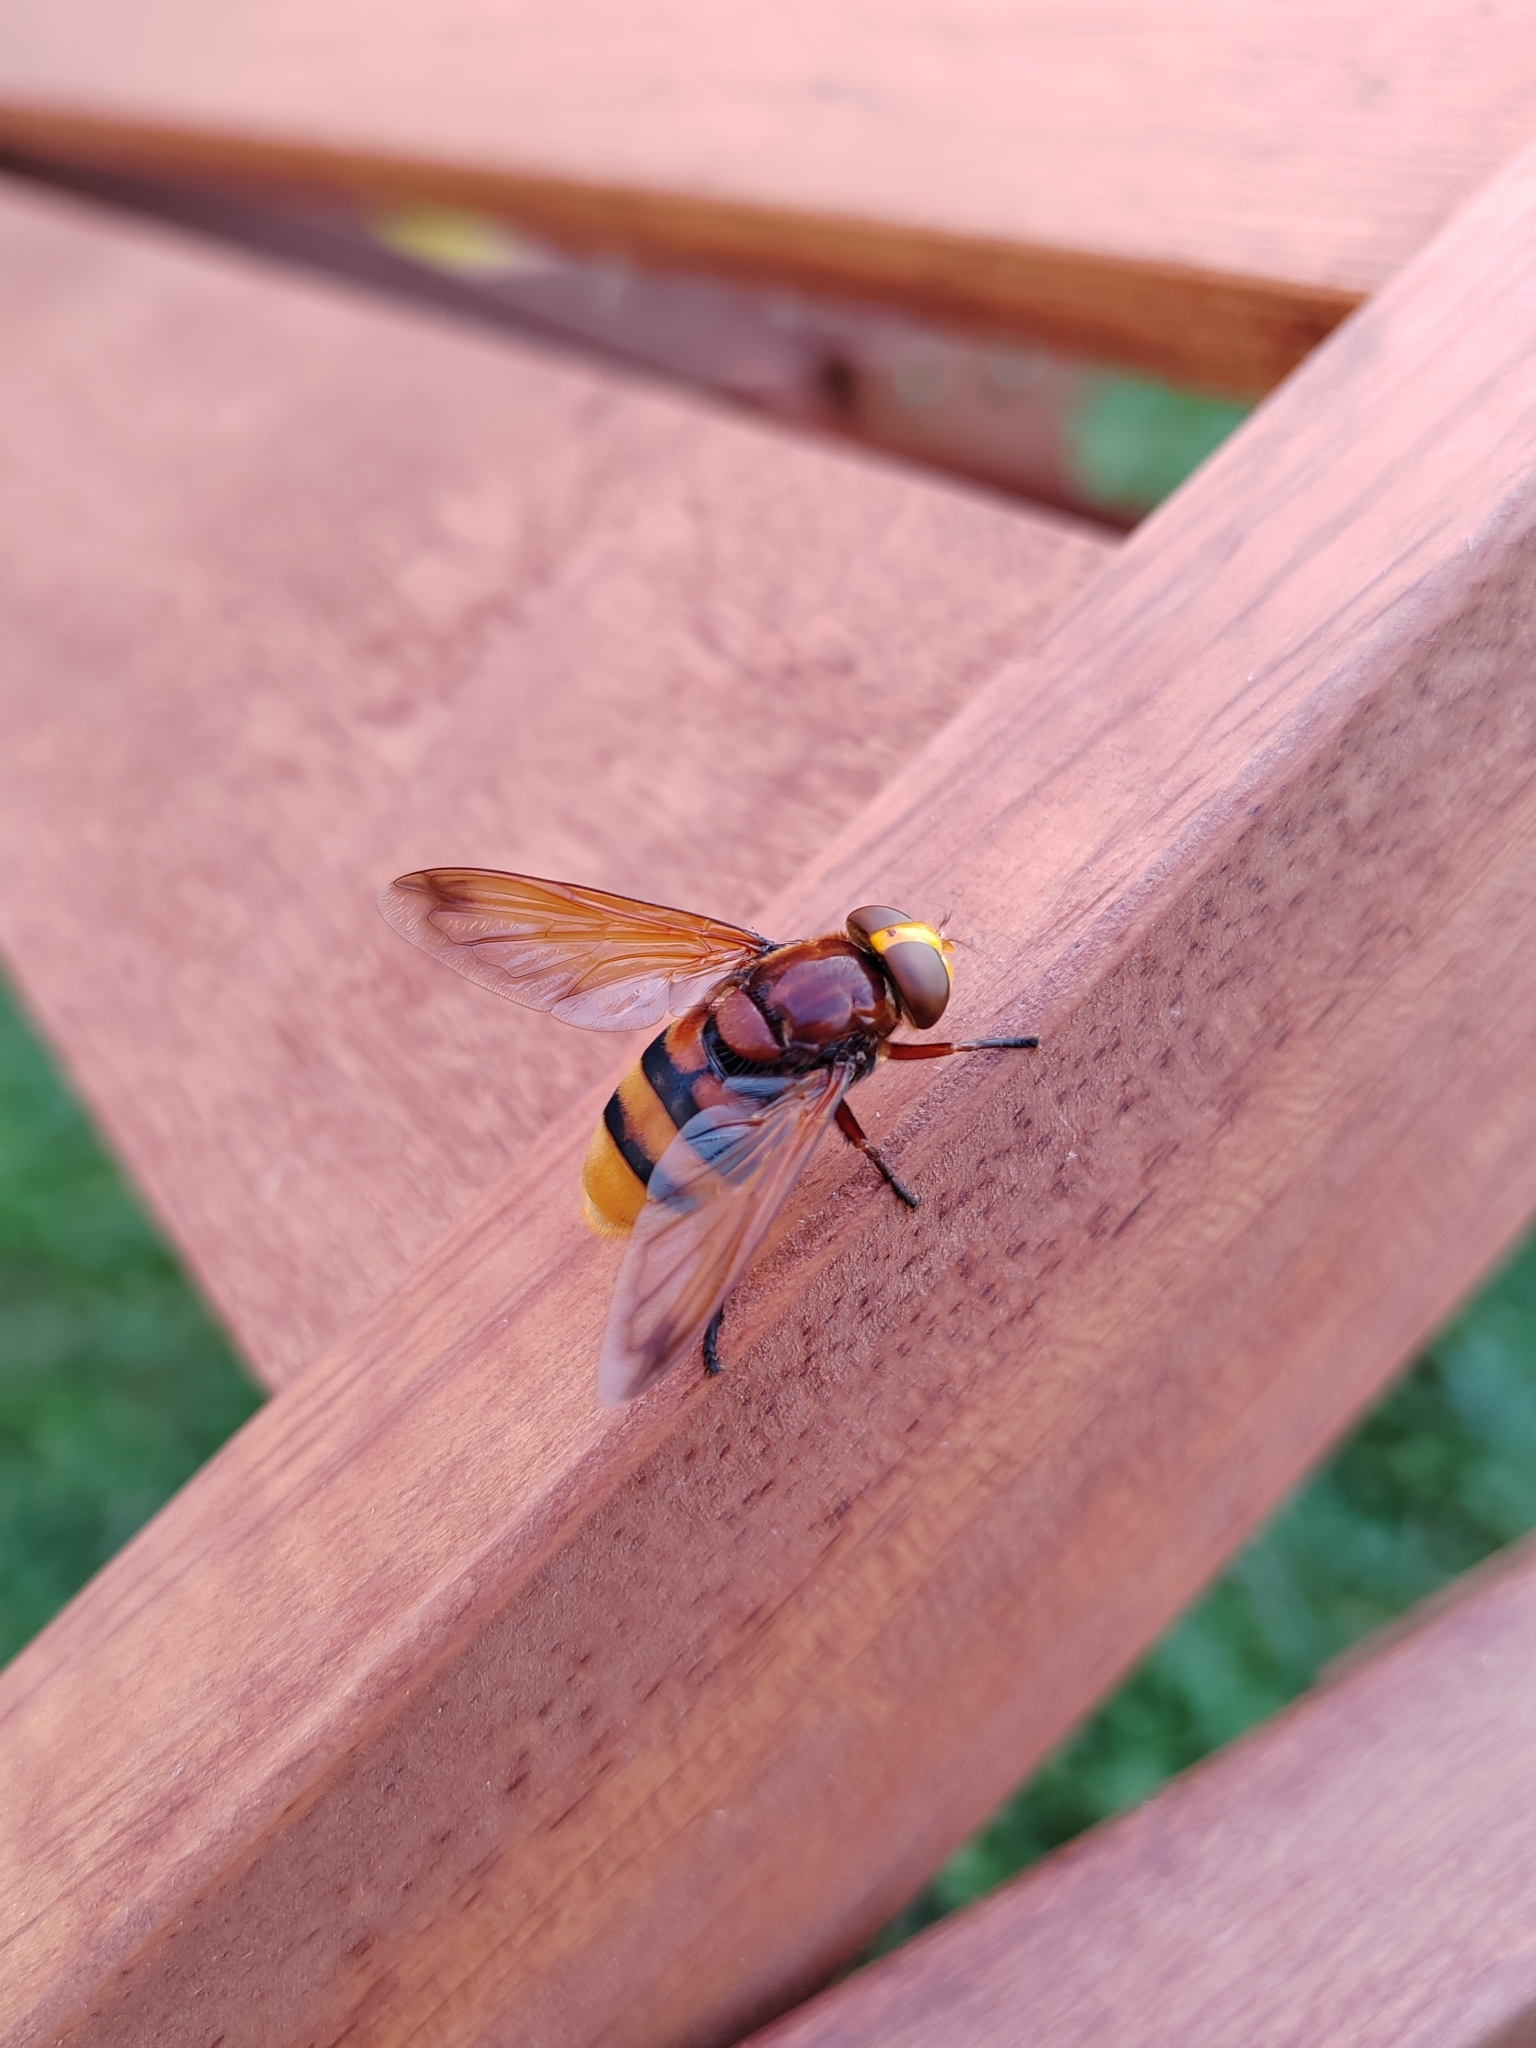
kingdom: Animalia
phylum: Arthropoda
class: Insecta
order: Diptera
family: Syrphidae
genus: Volucella
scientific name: Volucella zonaria
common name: Hornet hoverfly
